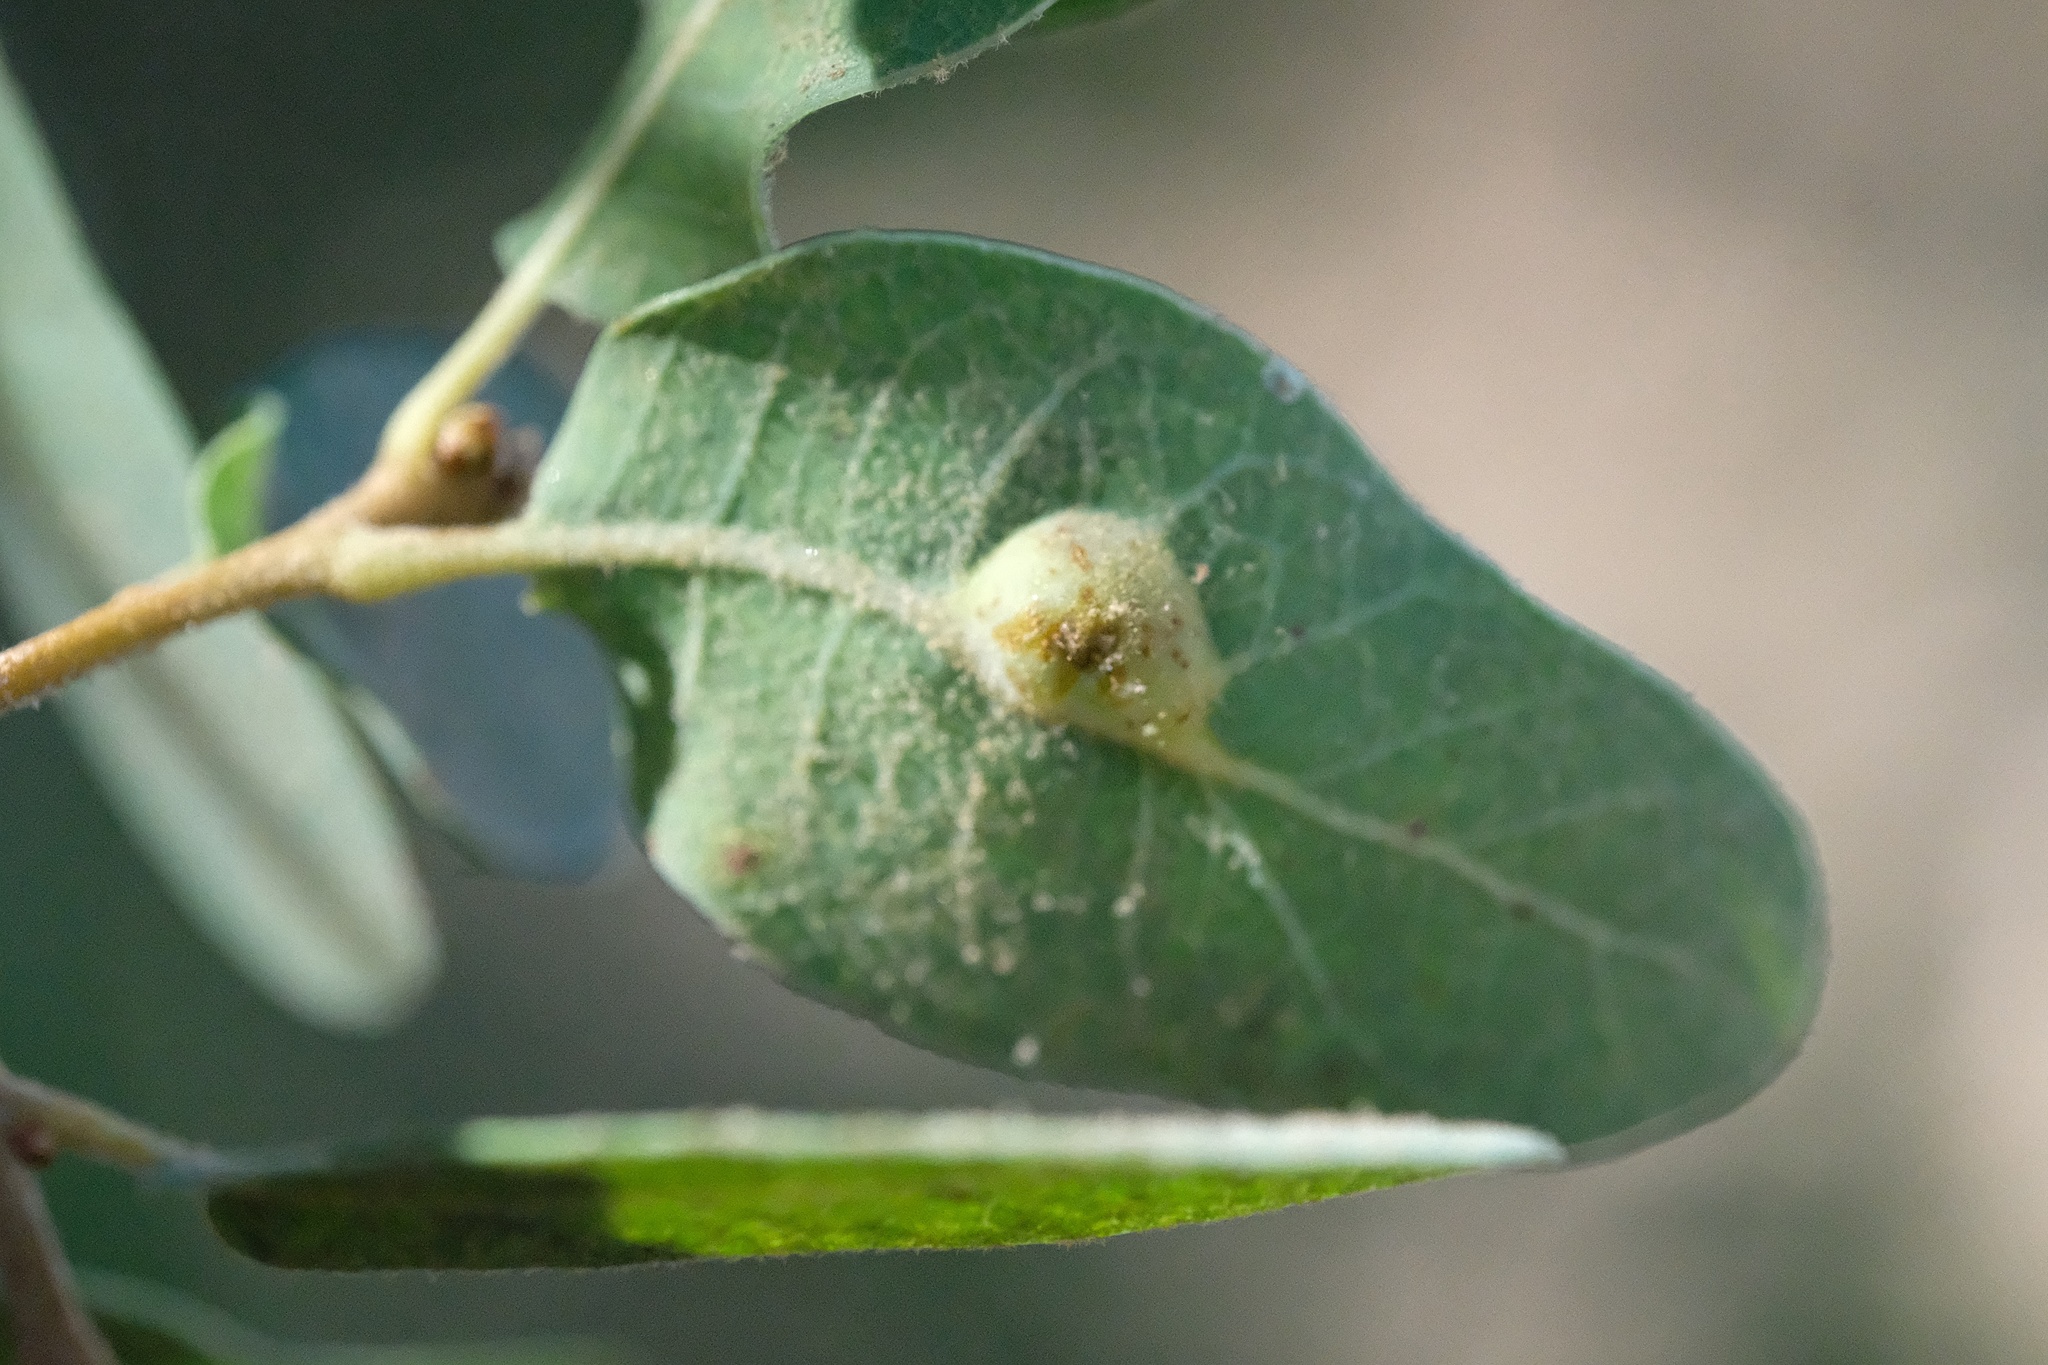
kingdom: Animalia
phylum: Arthropoda
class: Insecta
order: Hymenoptera
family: Cynipidae
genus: Andricus
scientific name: Andricus
